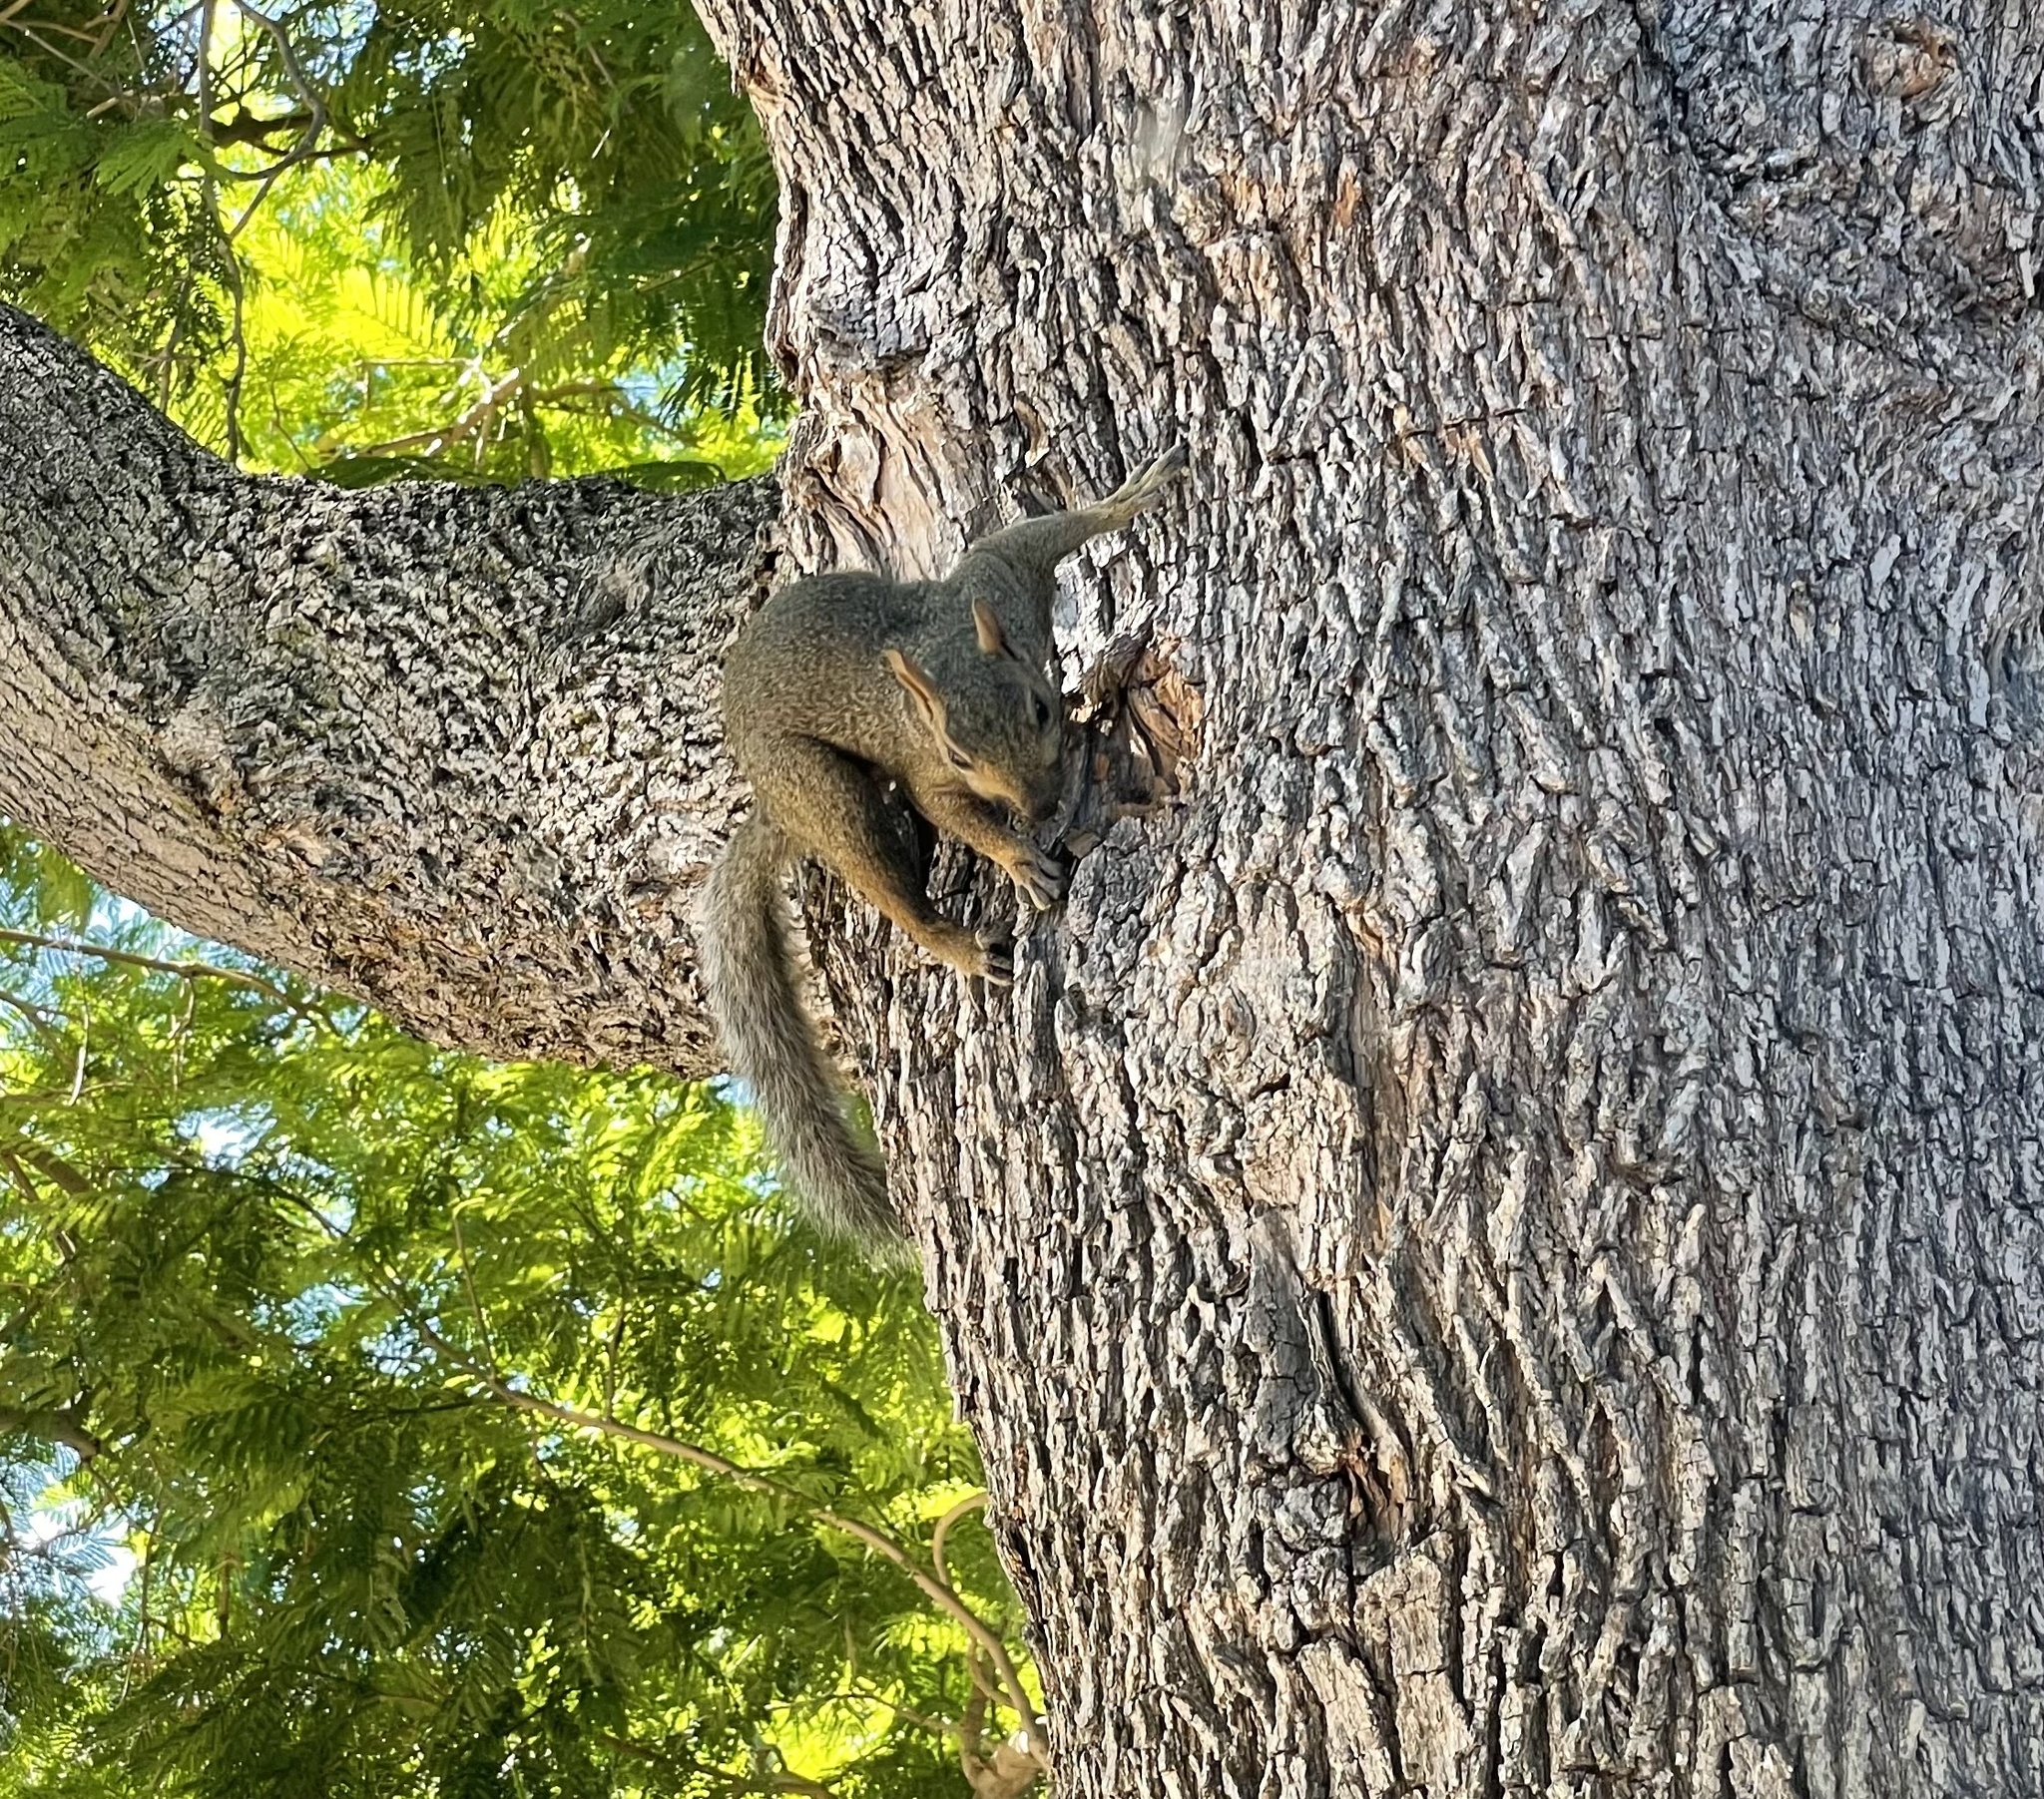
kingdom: Animalia
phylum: Chordata
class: Mammalia
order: Rodentia
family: Sciuridae
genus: Sciurus
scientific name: Sciurus niger
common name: Fox squirrel
